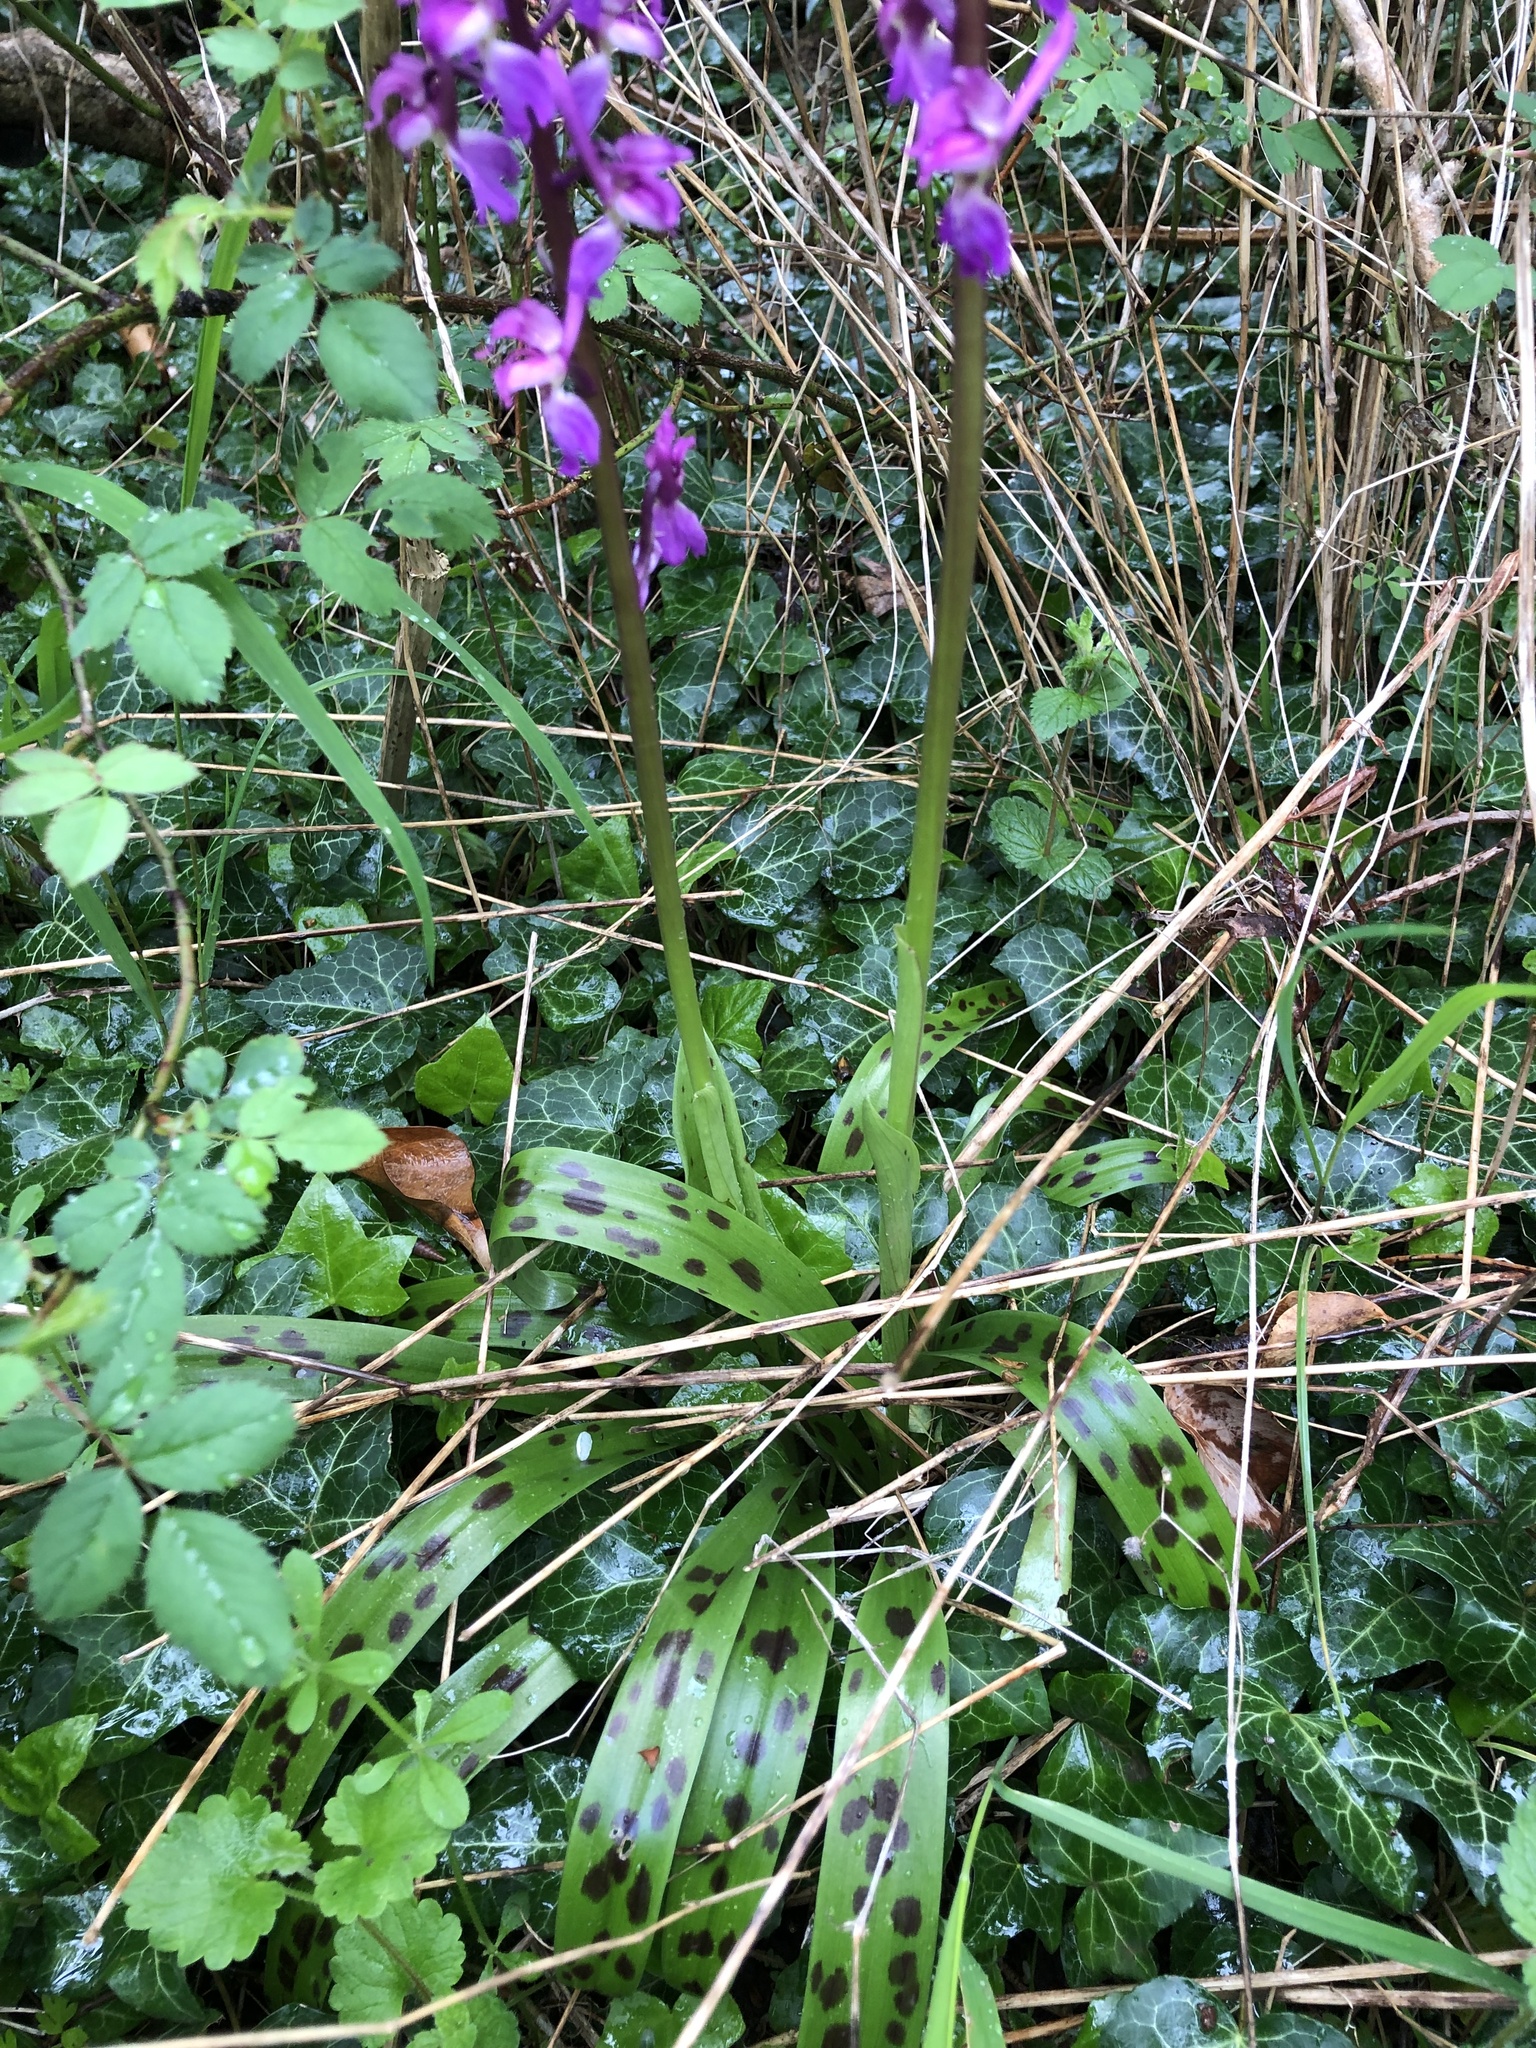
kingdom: Plantae
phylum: Tracheophyta
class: Liliopsida
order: Asparagales
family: Orchidaceae
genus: Orchis
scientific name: Orchis mascula
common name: Early-purple orchid
